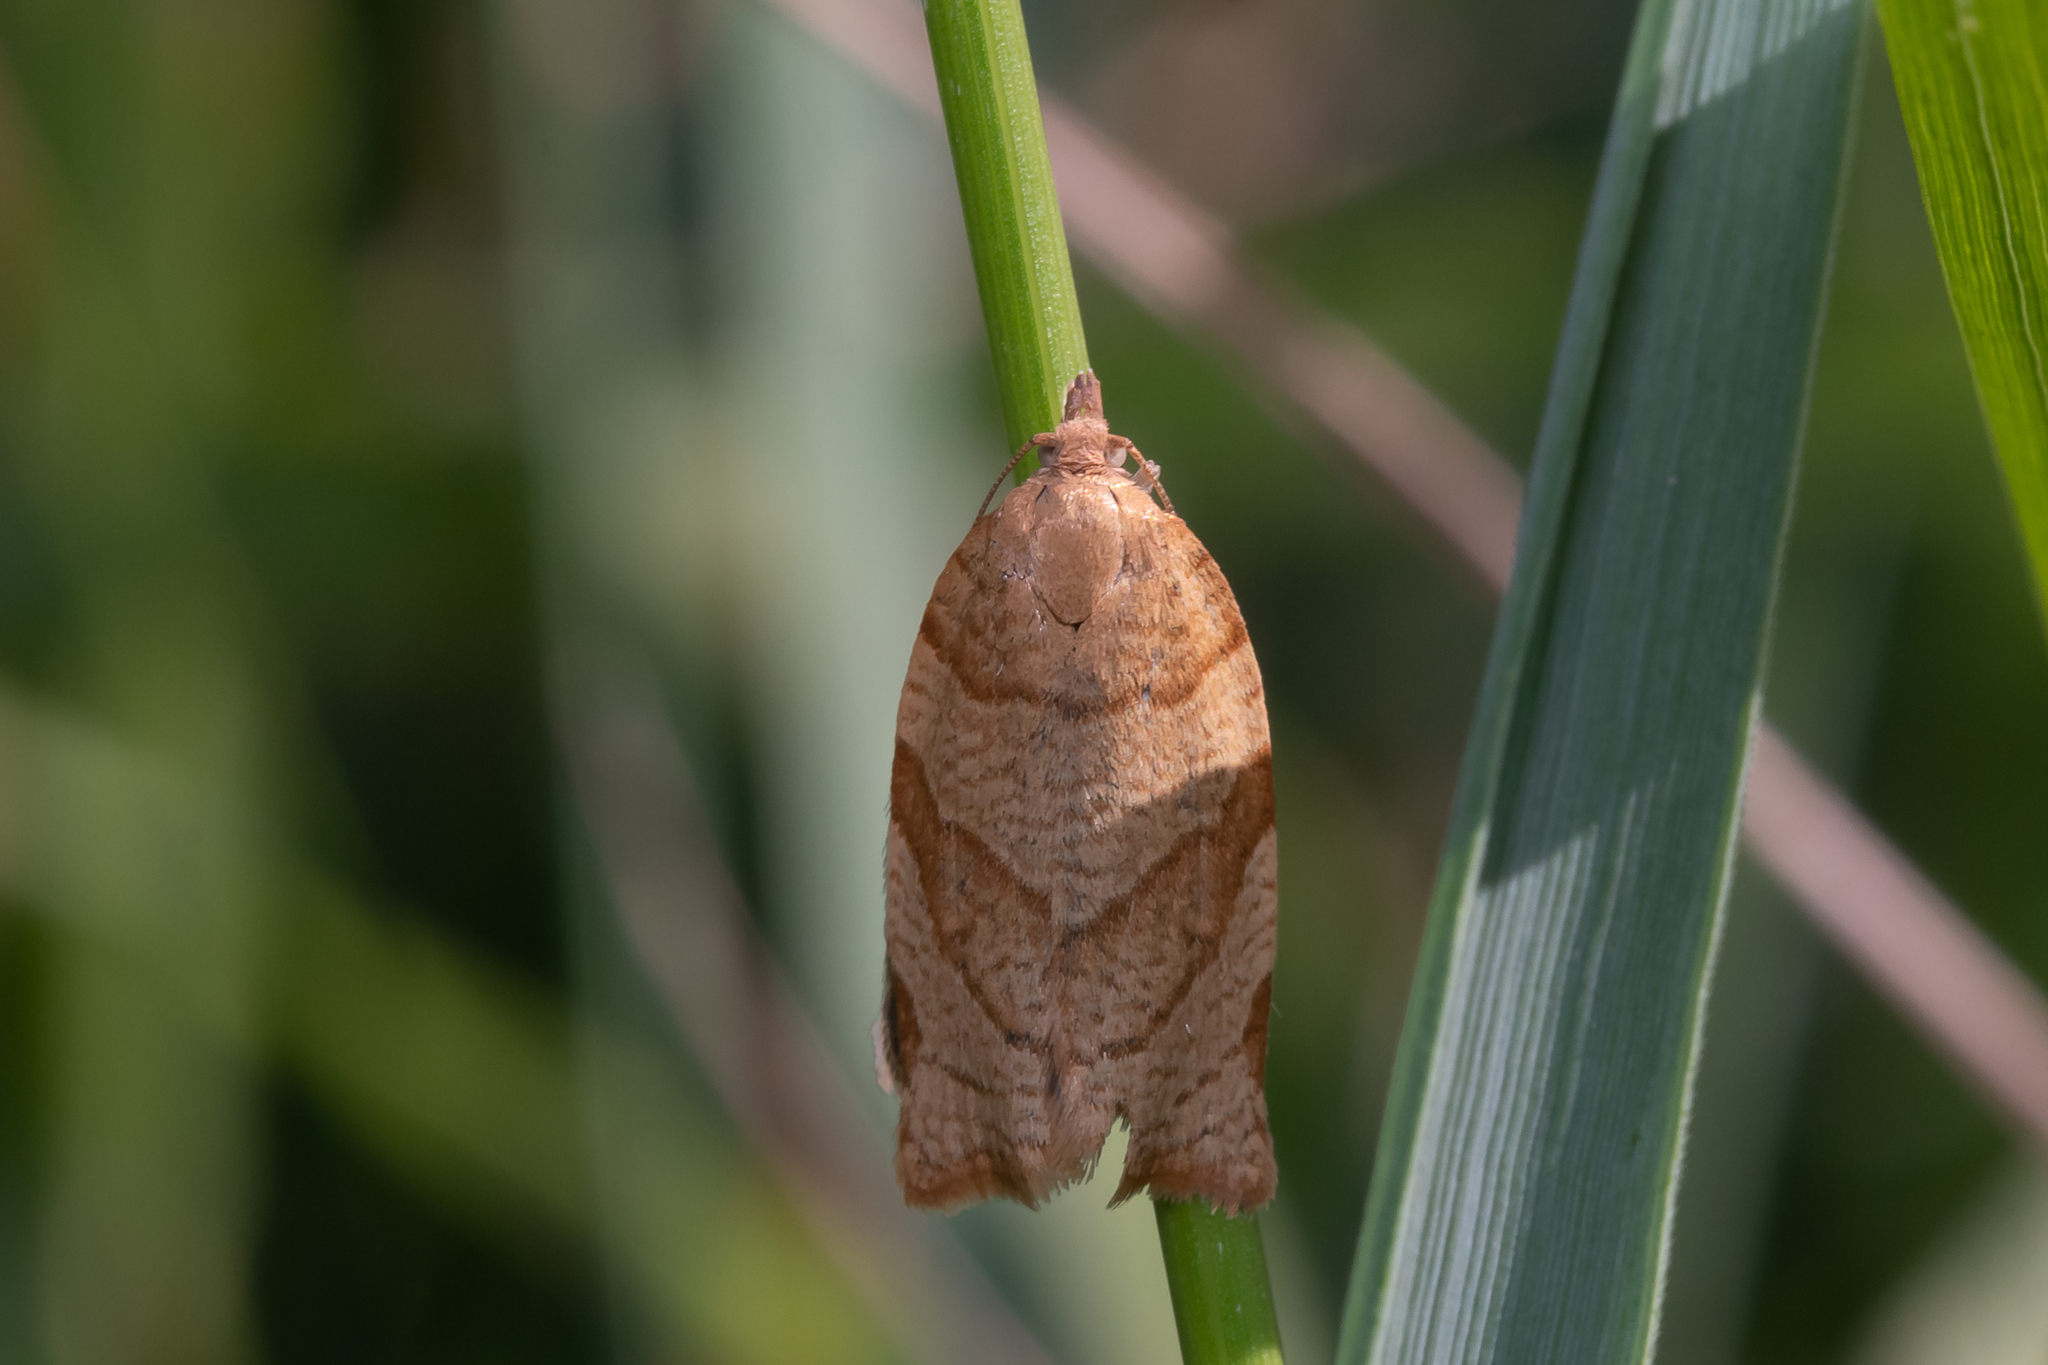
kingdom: Animalia
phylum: Arthropoda
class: Insecta
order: Lepidoptera
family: Tortricidae
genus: Pandemis
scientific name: Pandemis cerasana
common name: Barred fruit-tree tortrix
